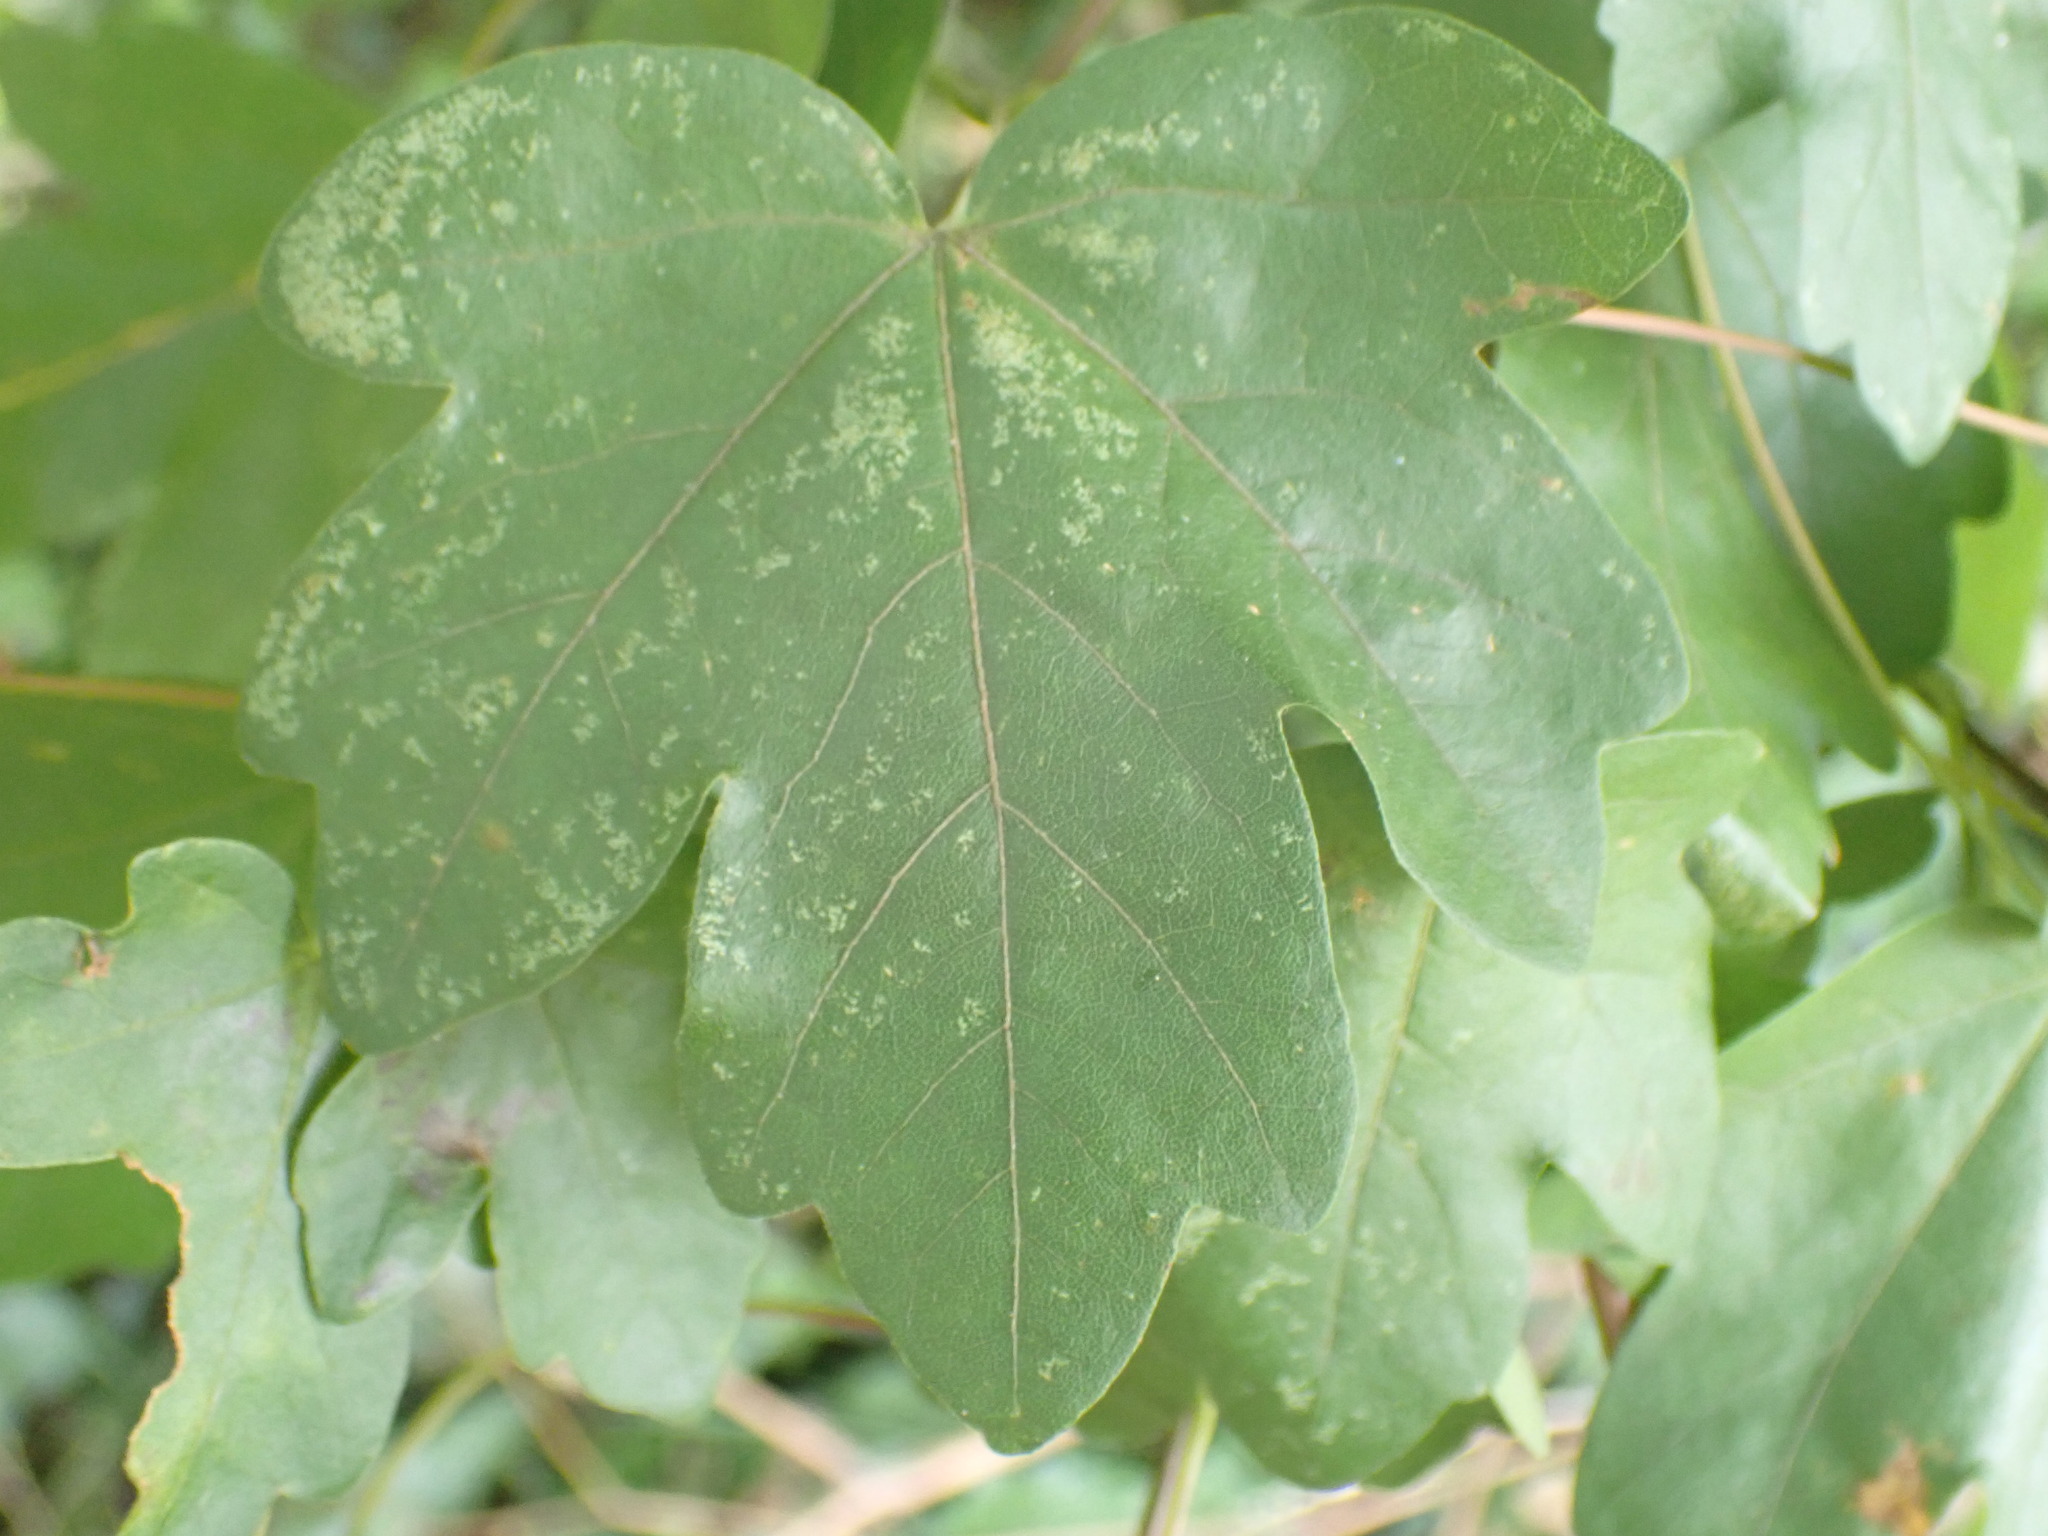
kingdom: Plantae
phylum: Tracheophyta
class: Magnoliopsida
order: Sapindales
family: Sapindaceae
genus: Acer
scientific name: Acer campestre
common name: Field maple
